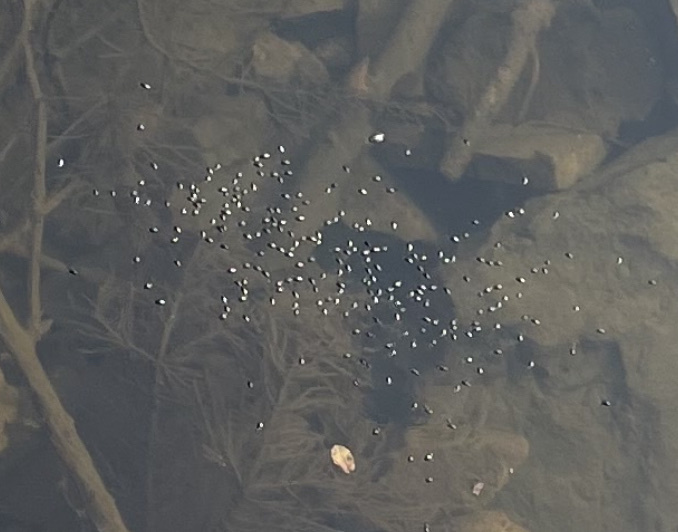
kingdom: Animalia
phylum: Arthropoda
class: Insecta
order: Coleoptera
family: Gyrinidae
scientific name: Gyrinidae
